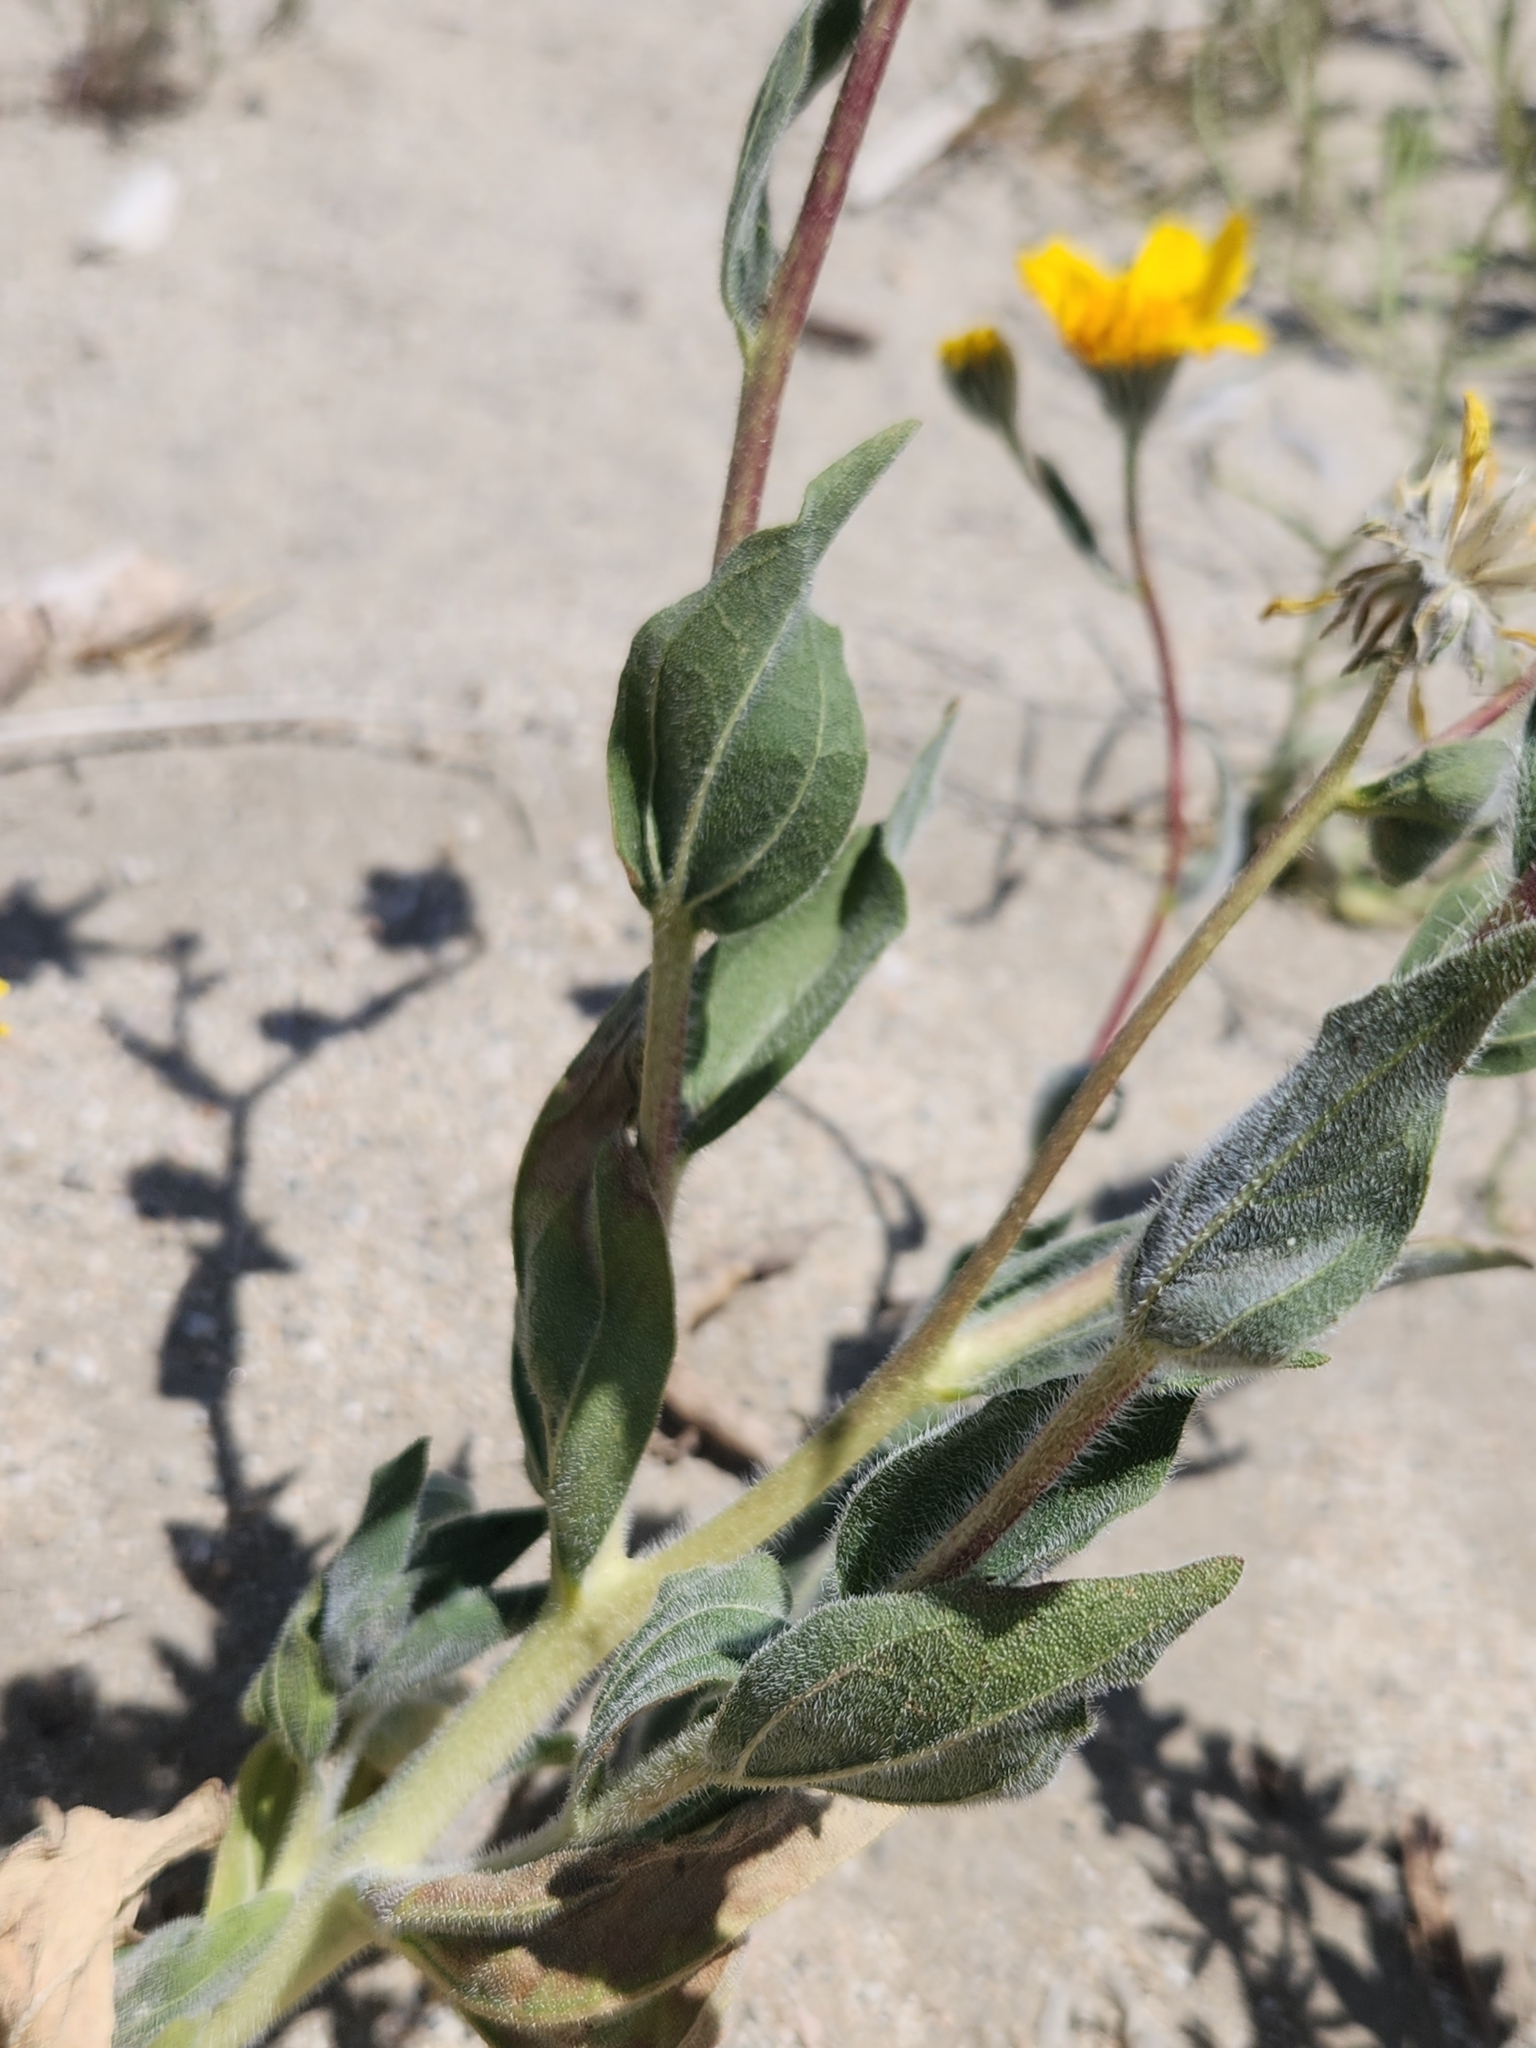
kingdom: Plantae
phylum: Tracheophyta
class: Magnoliopsida
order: Asterales
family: Asteraceae
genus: Geraea
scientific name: Geraea canescens
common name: Desert-gold
